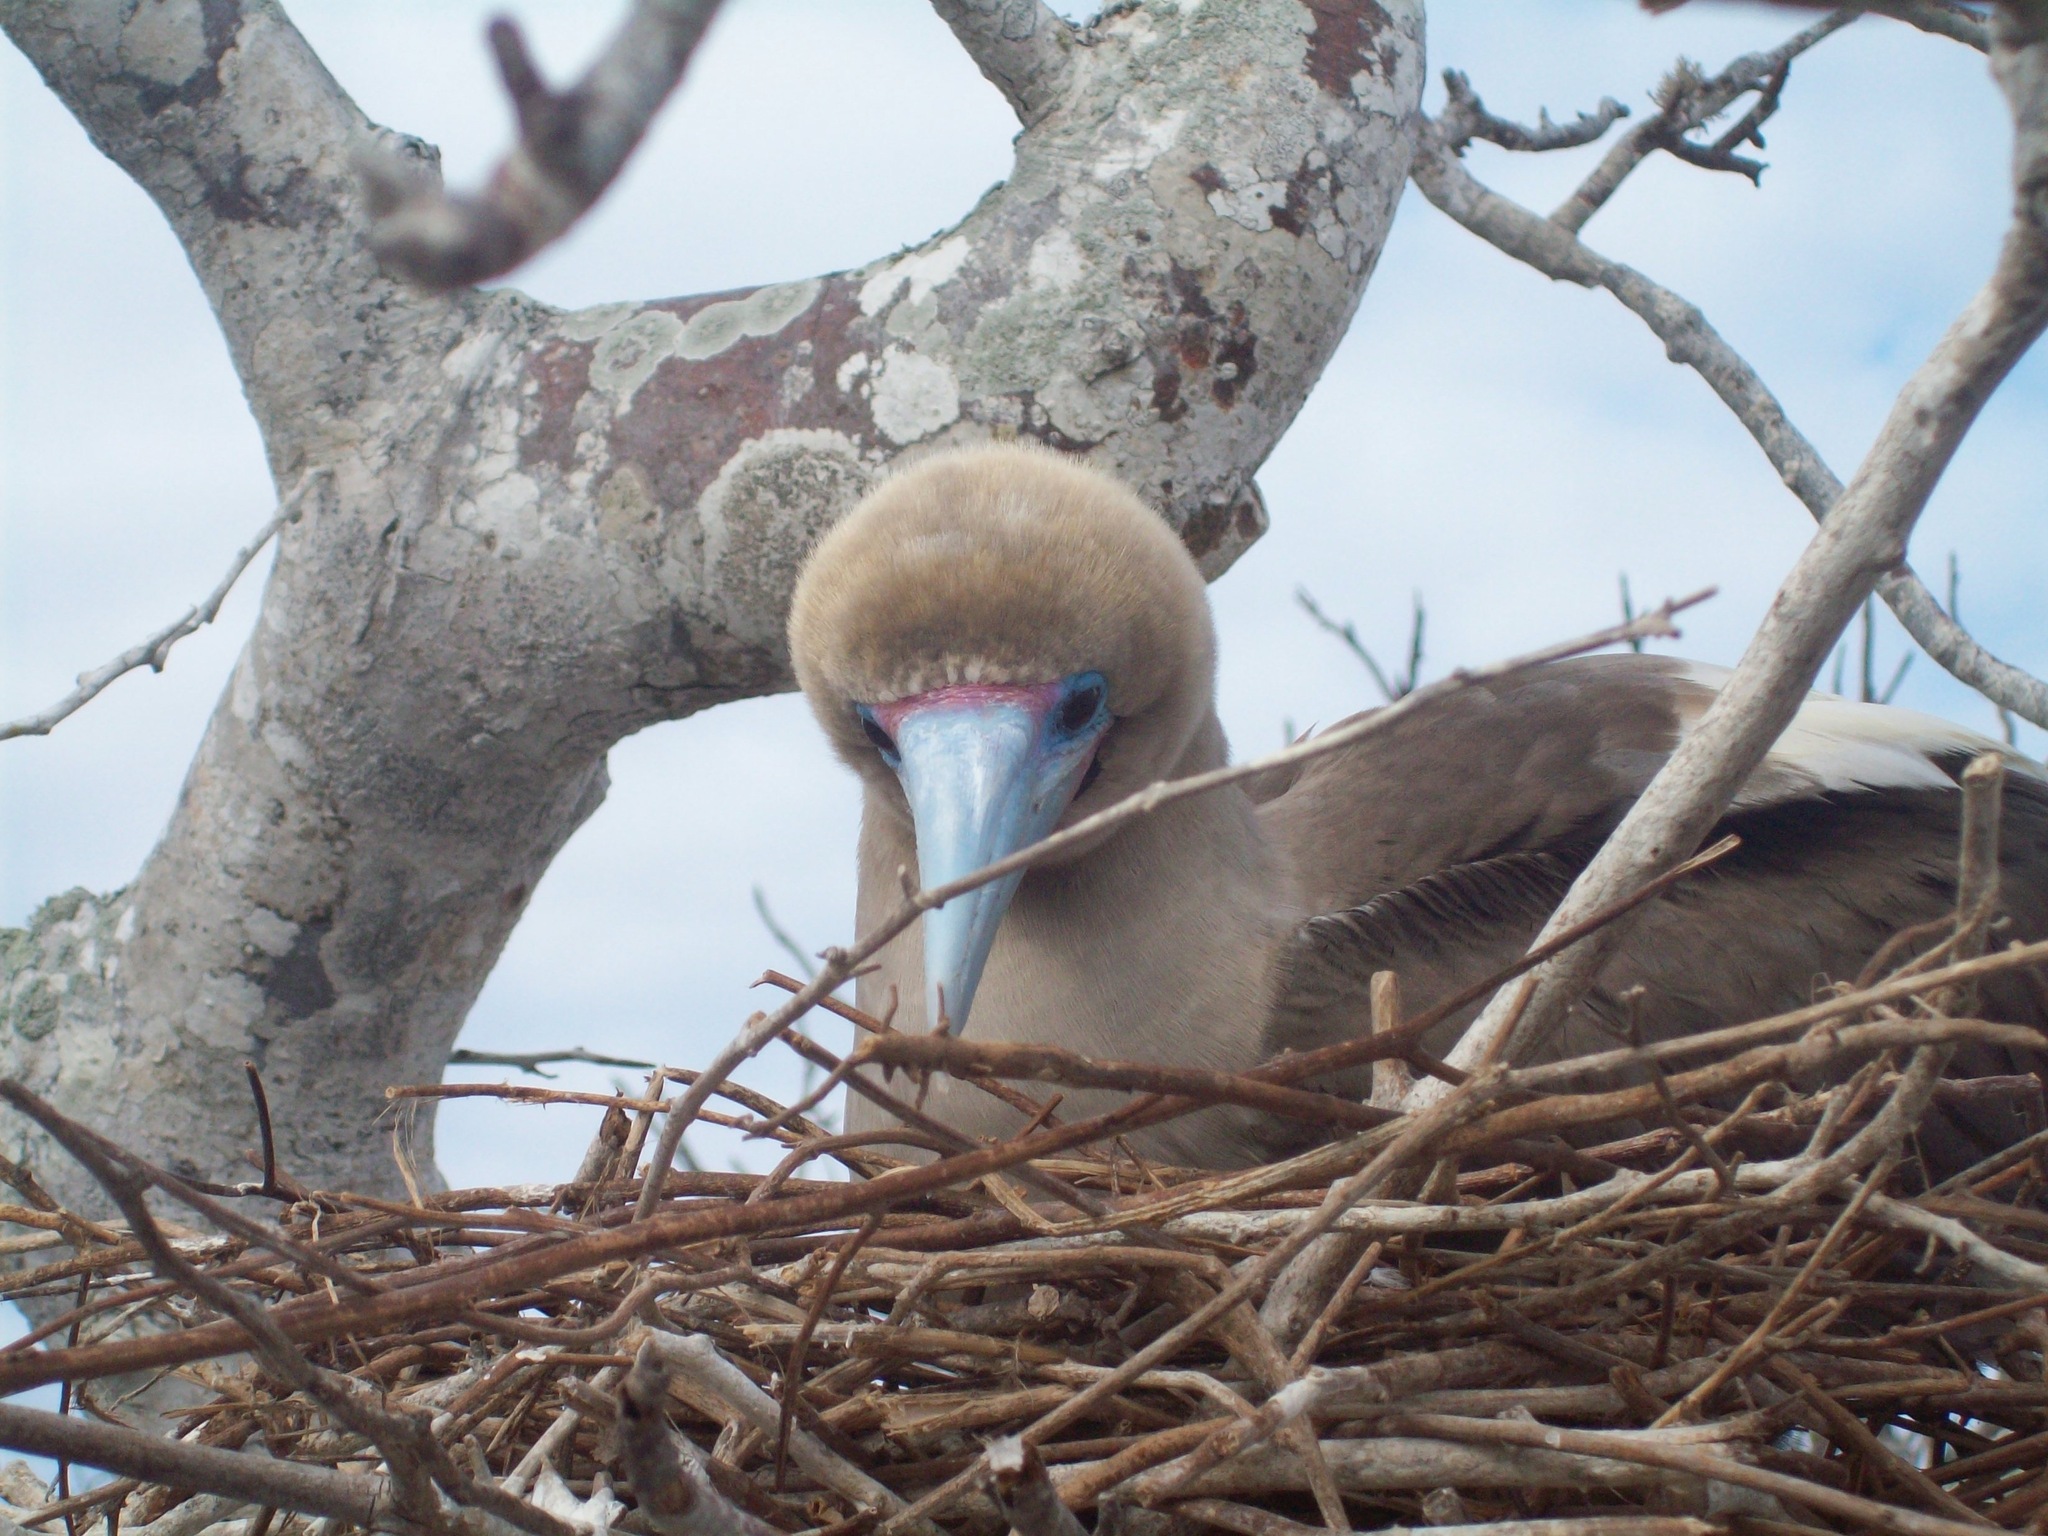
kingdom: Animalia
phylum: Chordata
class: Aves
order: Suliformes
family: Sulidae
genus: Sula
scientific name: Sula sula
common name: Red-footed booby
